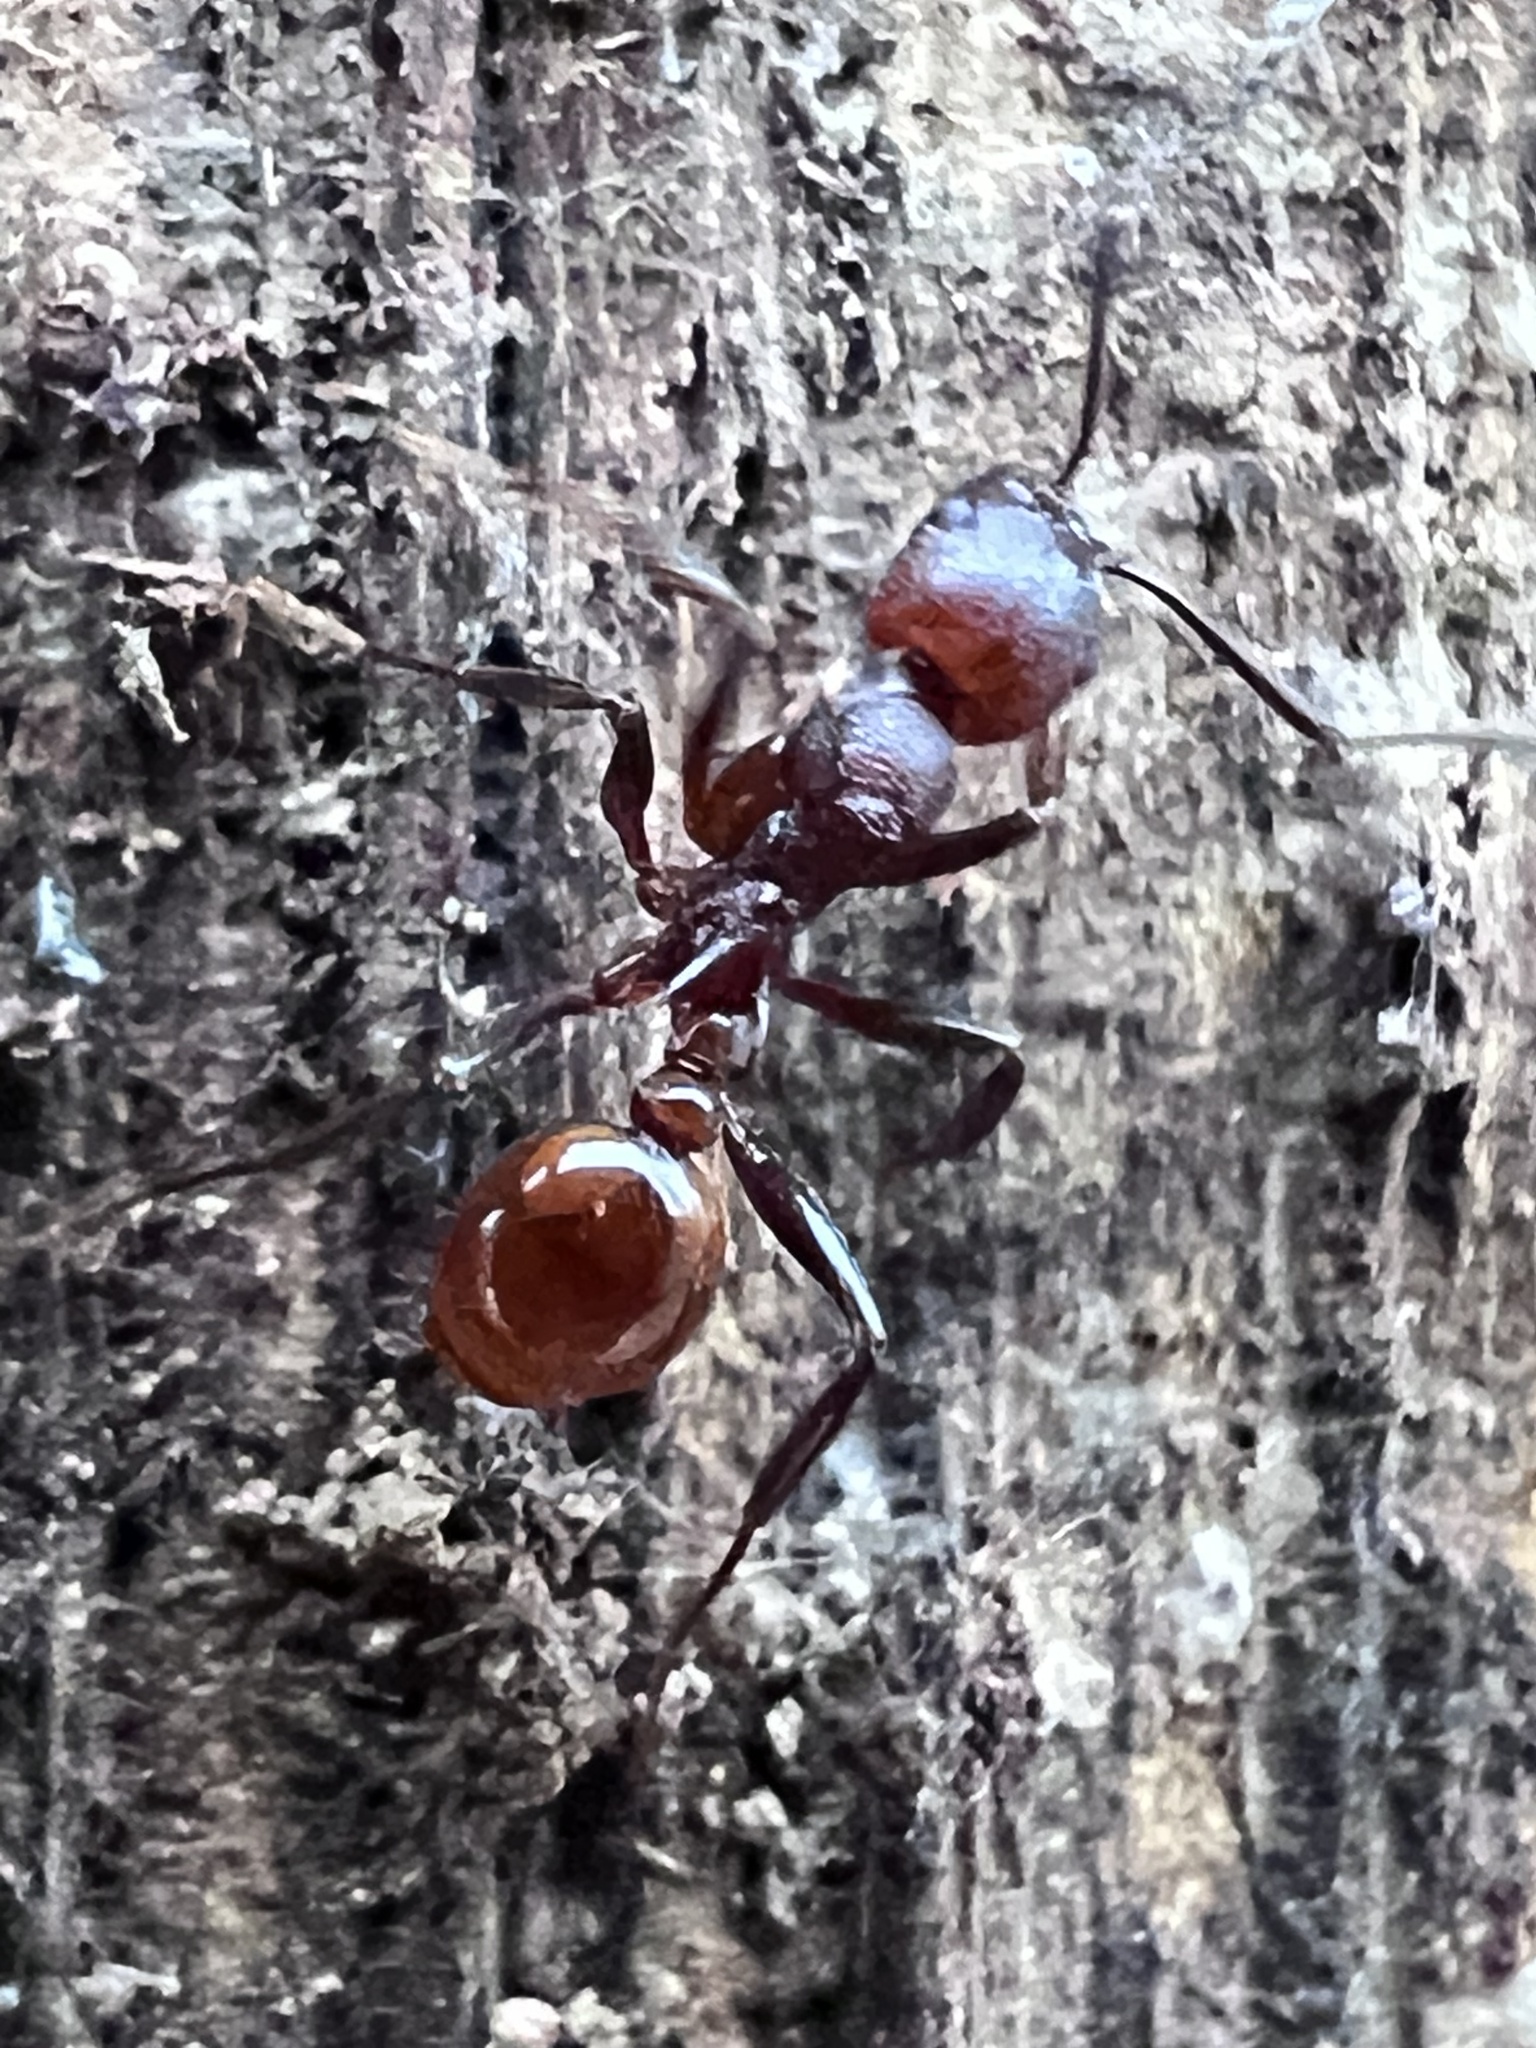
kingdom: Animalia
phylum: Arthropoda
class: Insecta
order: Hymenoptera
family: Formicidae
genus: Aphaenogaster
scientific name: Aphaenogaster tennesseensis
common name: Tennessee thread-waisted ant
